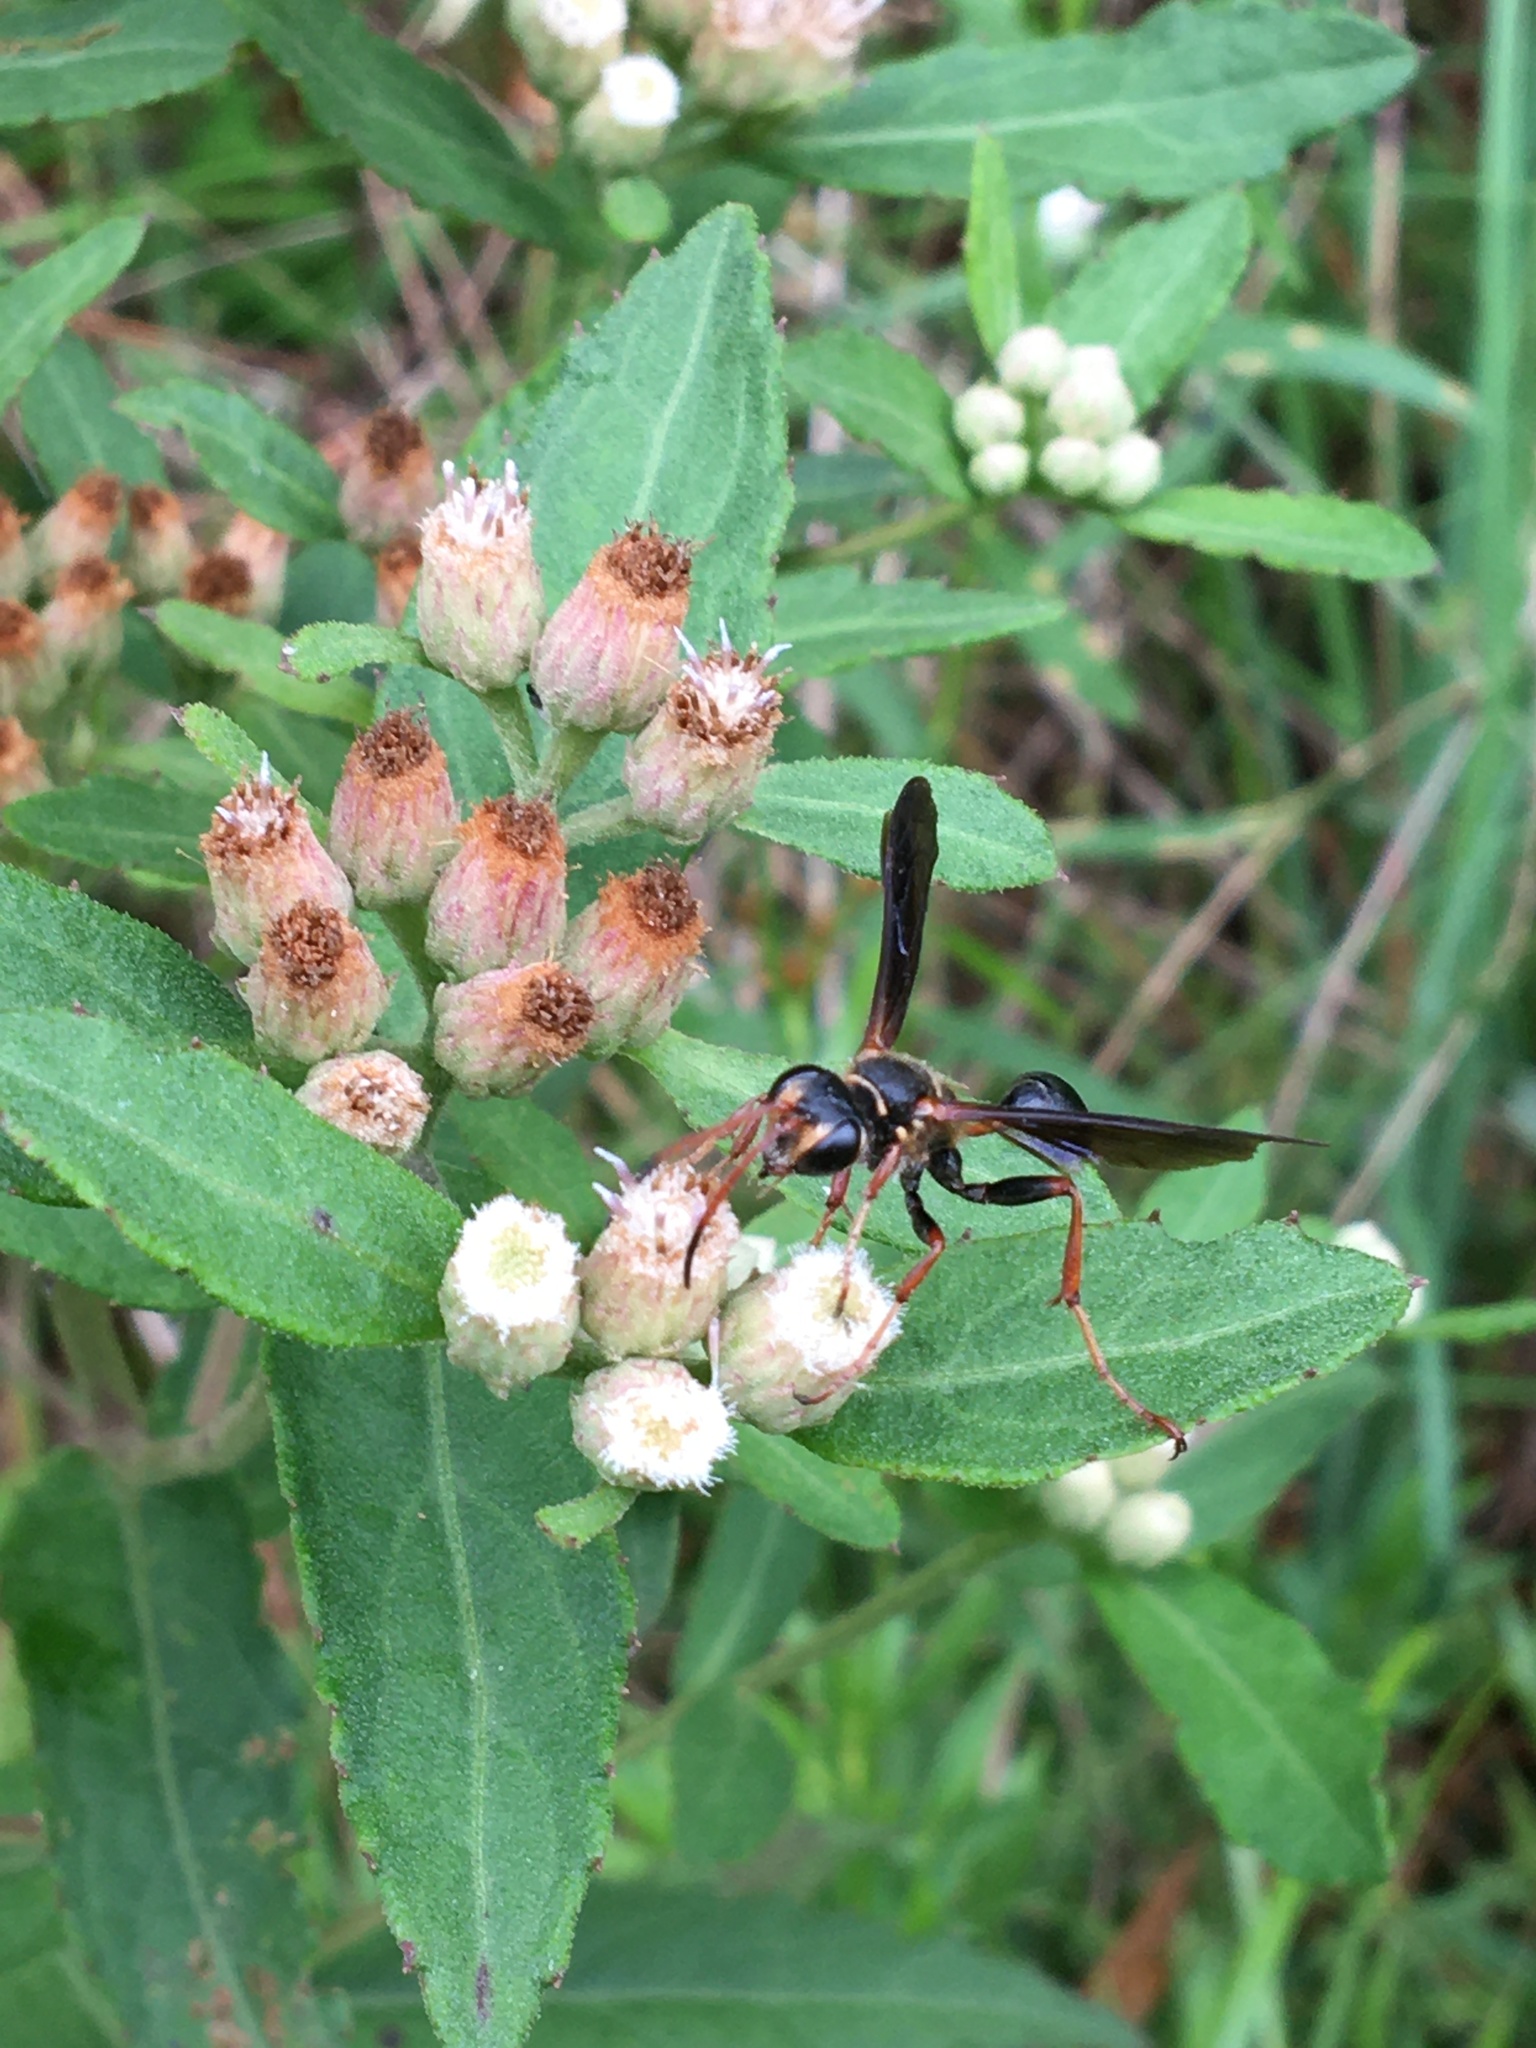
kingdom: Animalia
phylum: Arthropoda
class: Insecta
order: Hymenoptera
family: Sphecidae
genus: Isodontia
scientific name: Isodontia exornata
